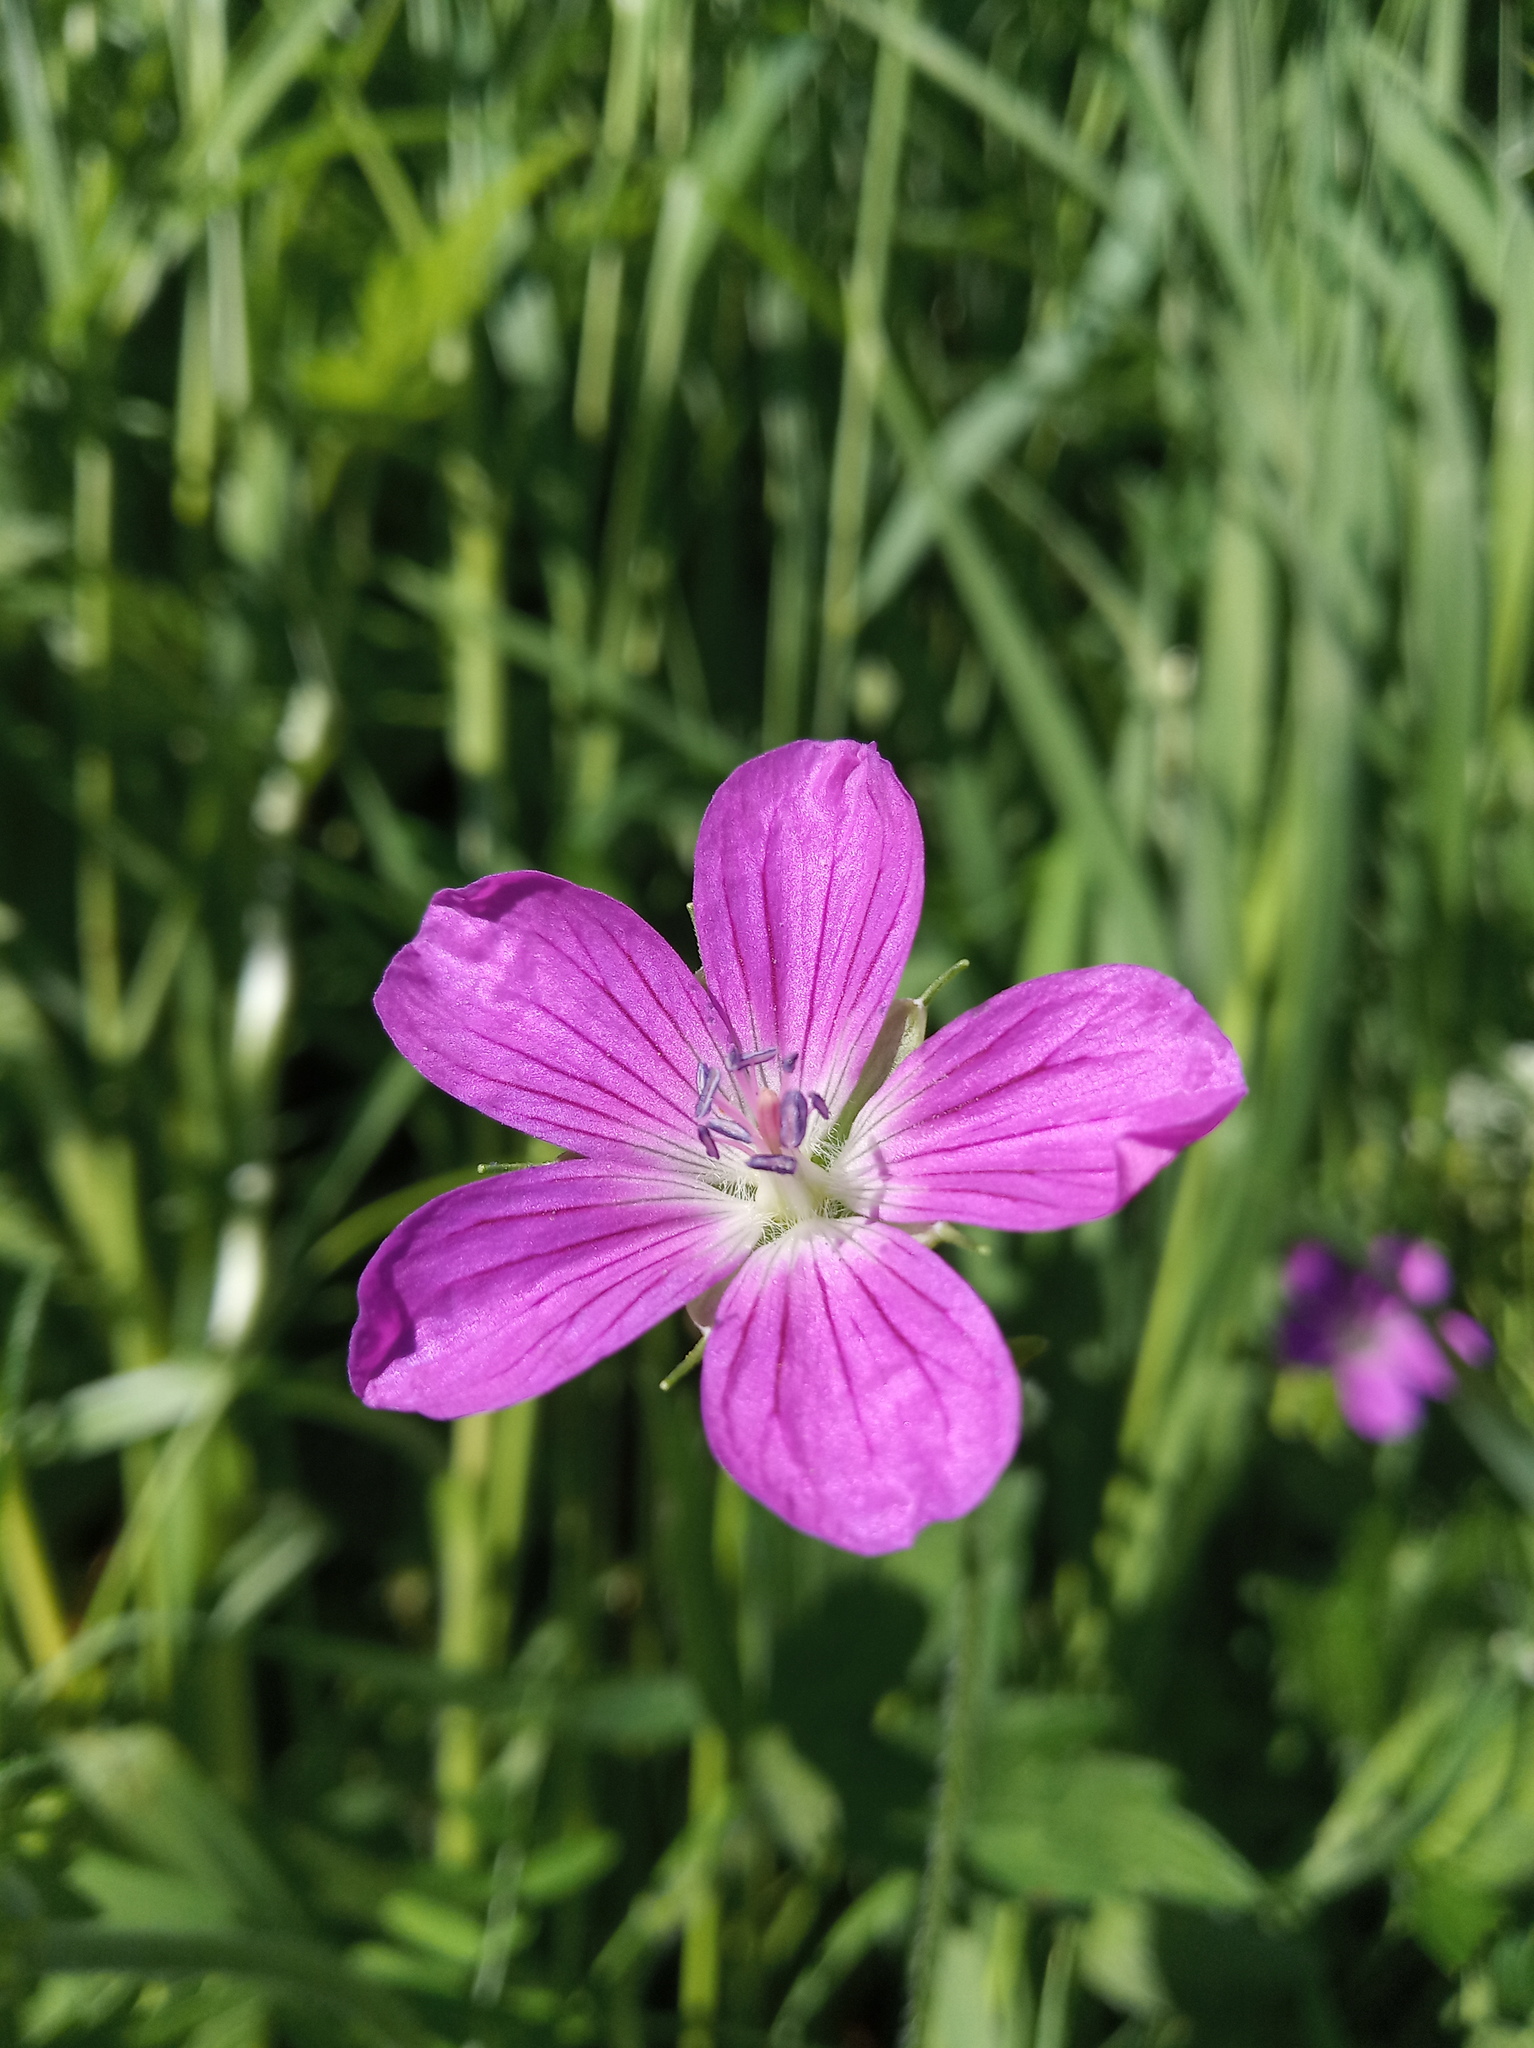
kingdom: Plantae
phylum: Tracheophyta
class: Magnoliopsida
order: Geraniales
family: Geraniaceae
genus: Geranium
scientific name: Geranium palustre
